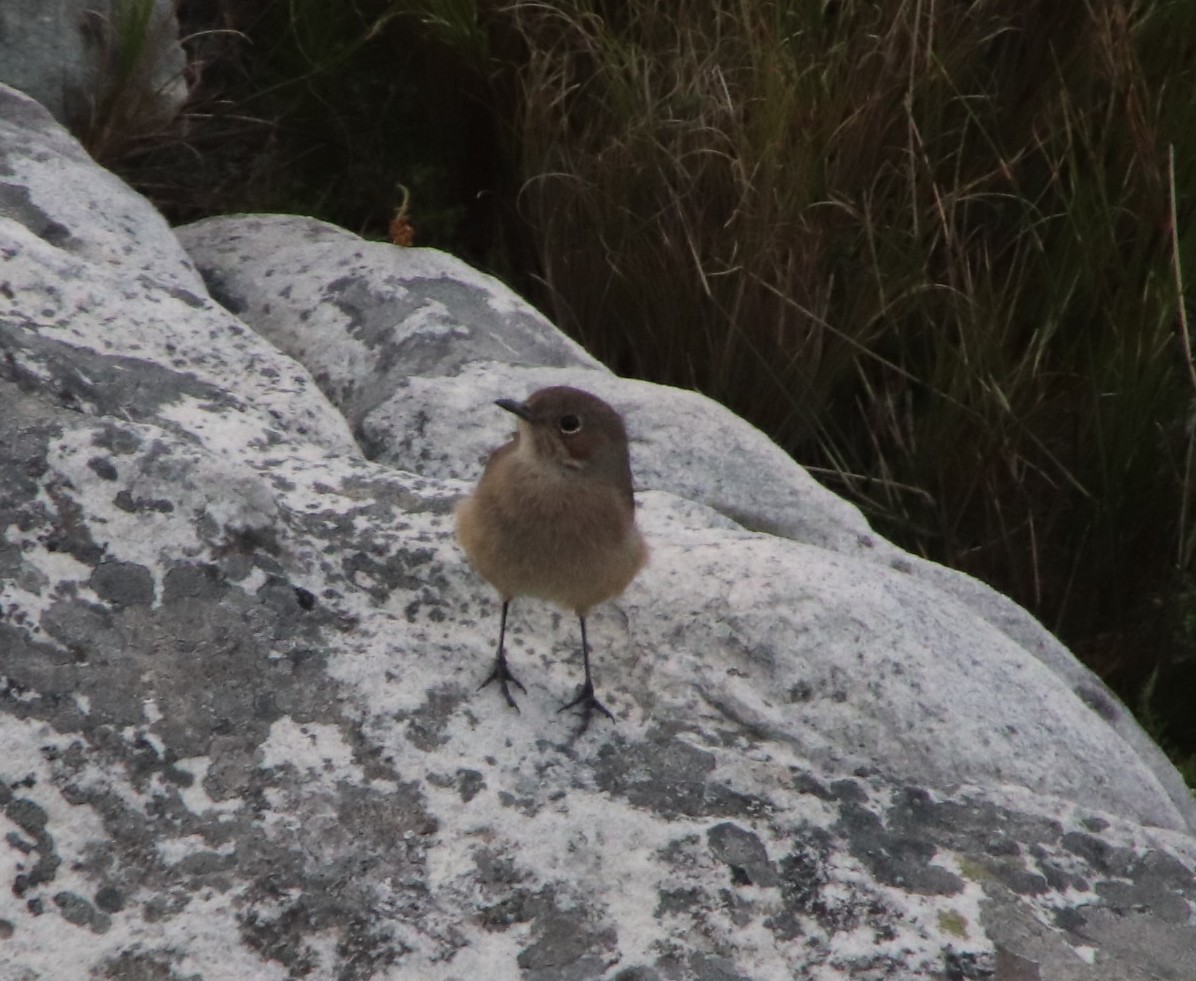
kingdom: Animalia
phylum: Chordata
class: Aves
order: Passeriformes
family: Muscicapidae
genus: Oenanthe
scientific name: Oenanthe familiaris
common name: Familiar chat
